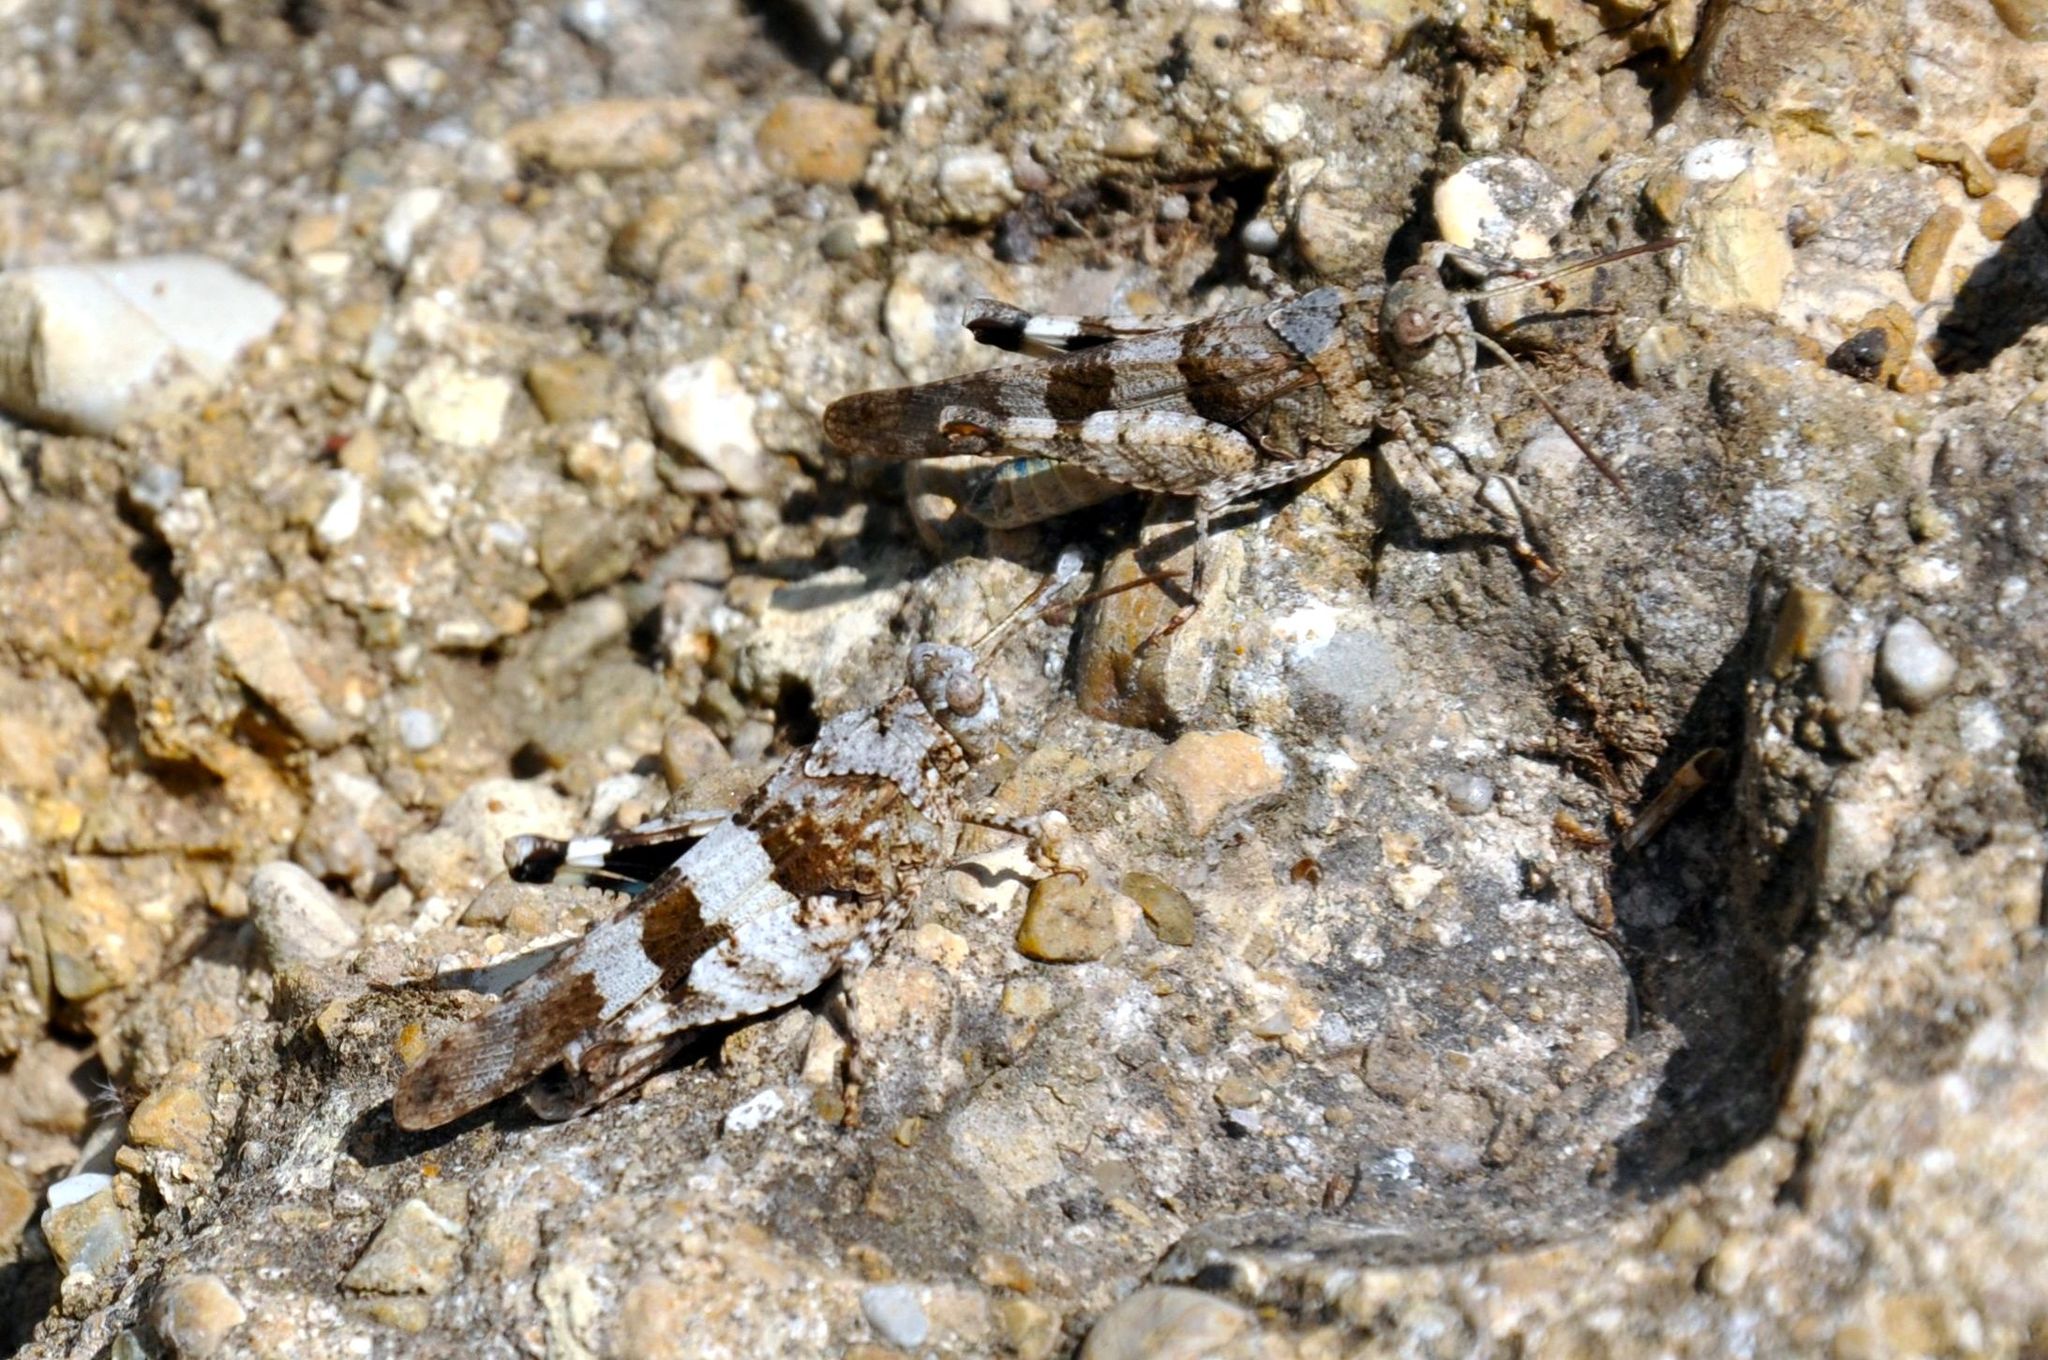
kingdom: Animalia
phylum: Arthropoda
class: Insecta
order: Orthoptera
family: Acrididae
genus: Oedipoda
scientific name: Oedipoda caerulescens
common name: Blue-winged grasshopper
